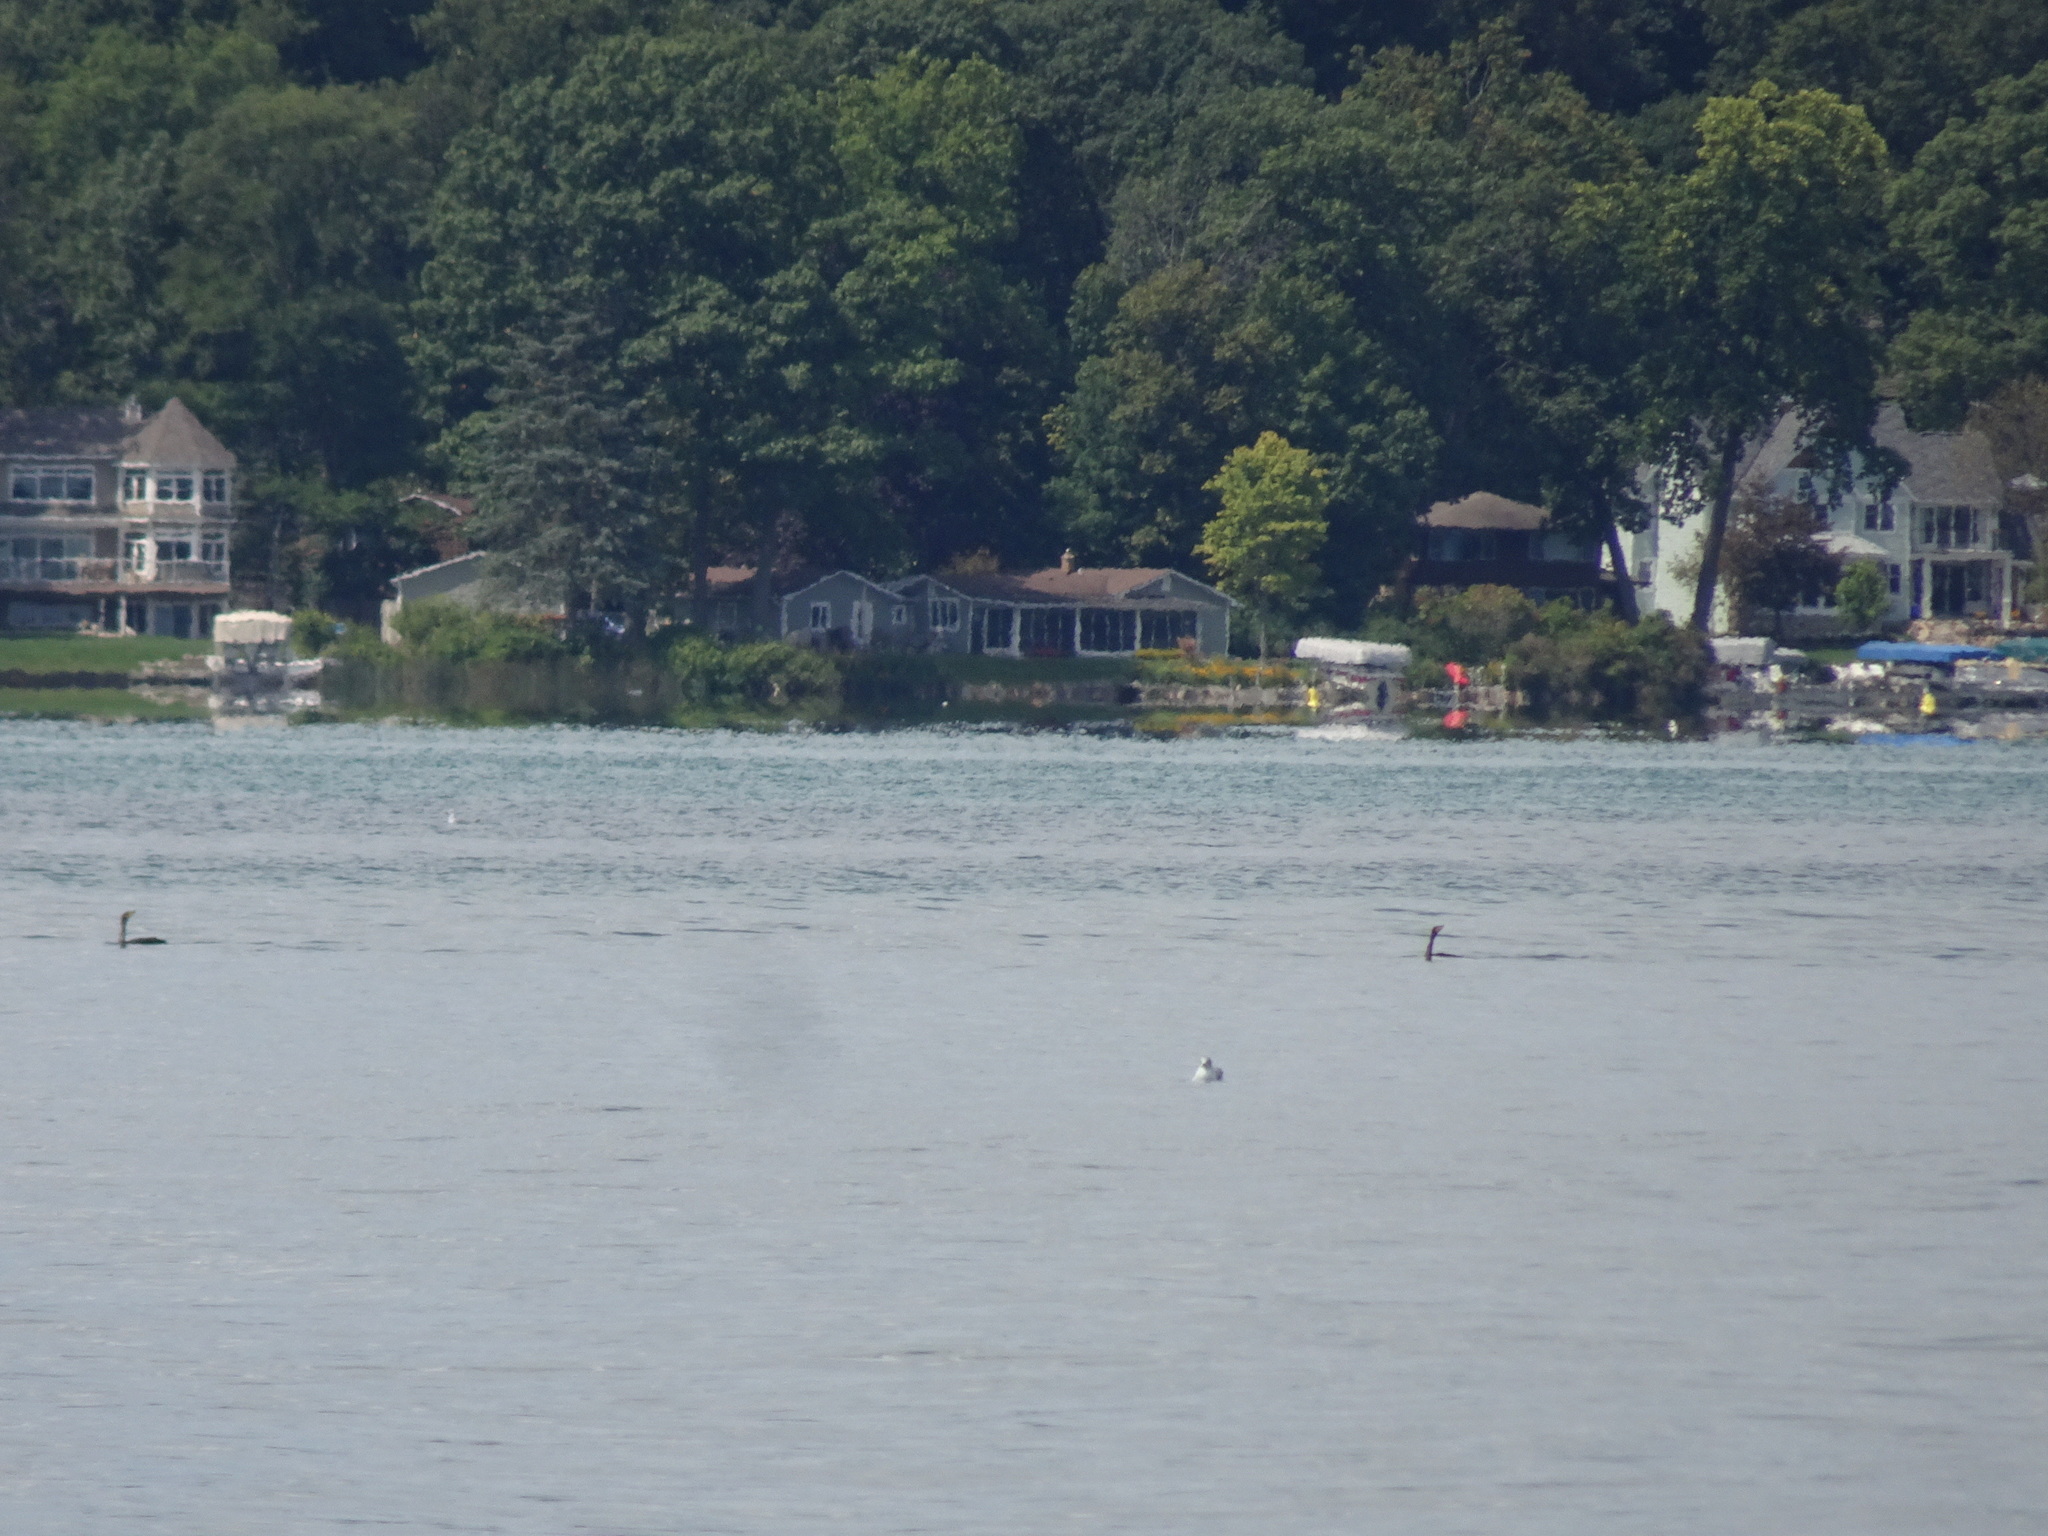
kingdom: Animalia
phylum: Chordata
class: Aves
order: Suliformes
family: Phalacrocoracidae
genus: Phalacrocorax
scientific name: Phalacrocorax auritus
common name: Double-crested cormorant
